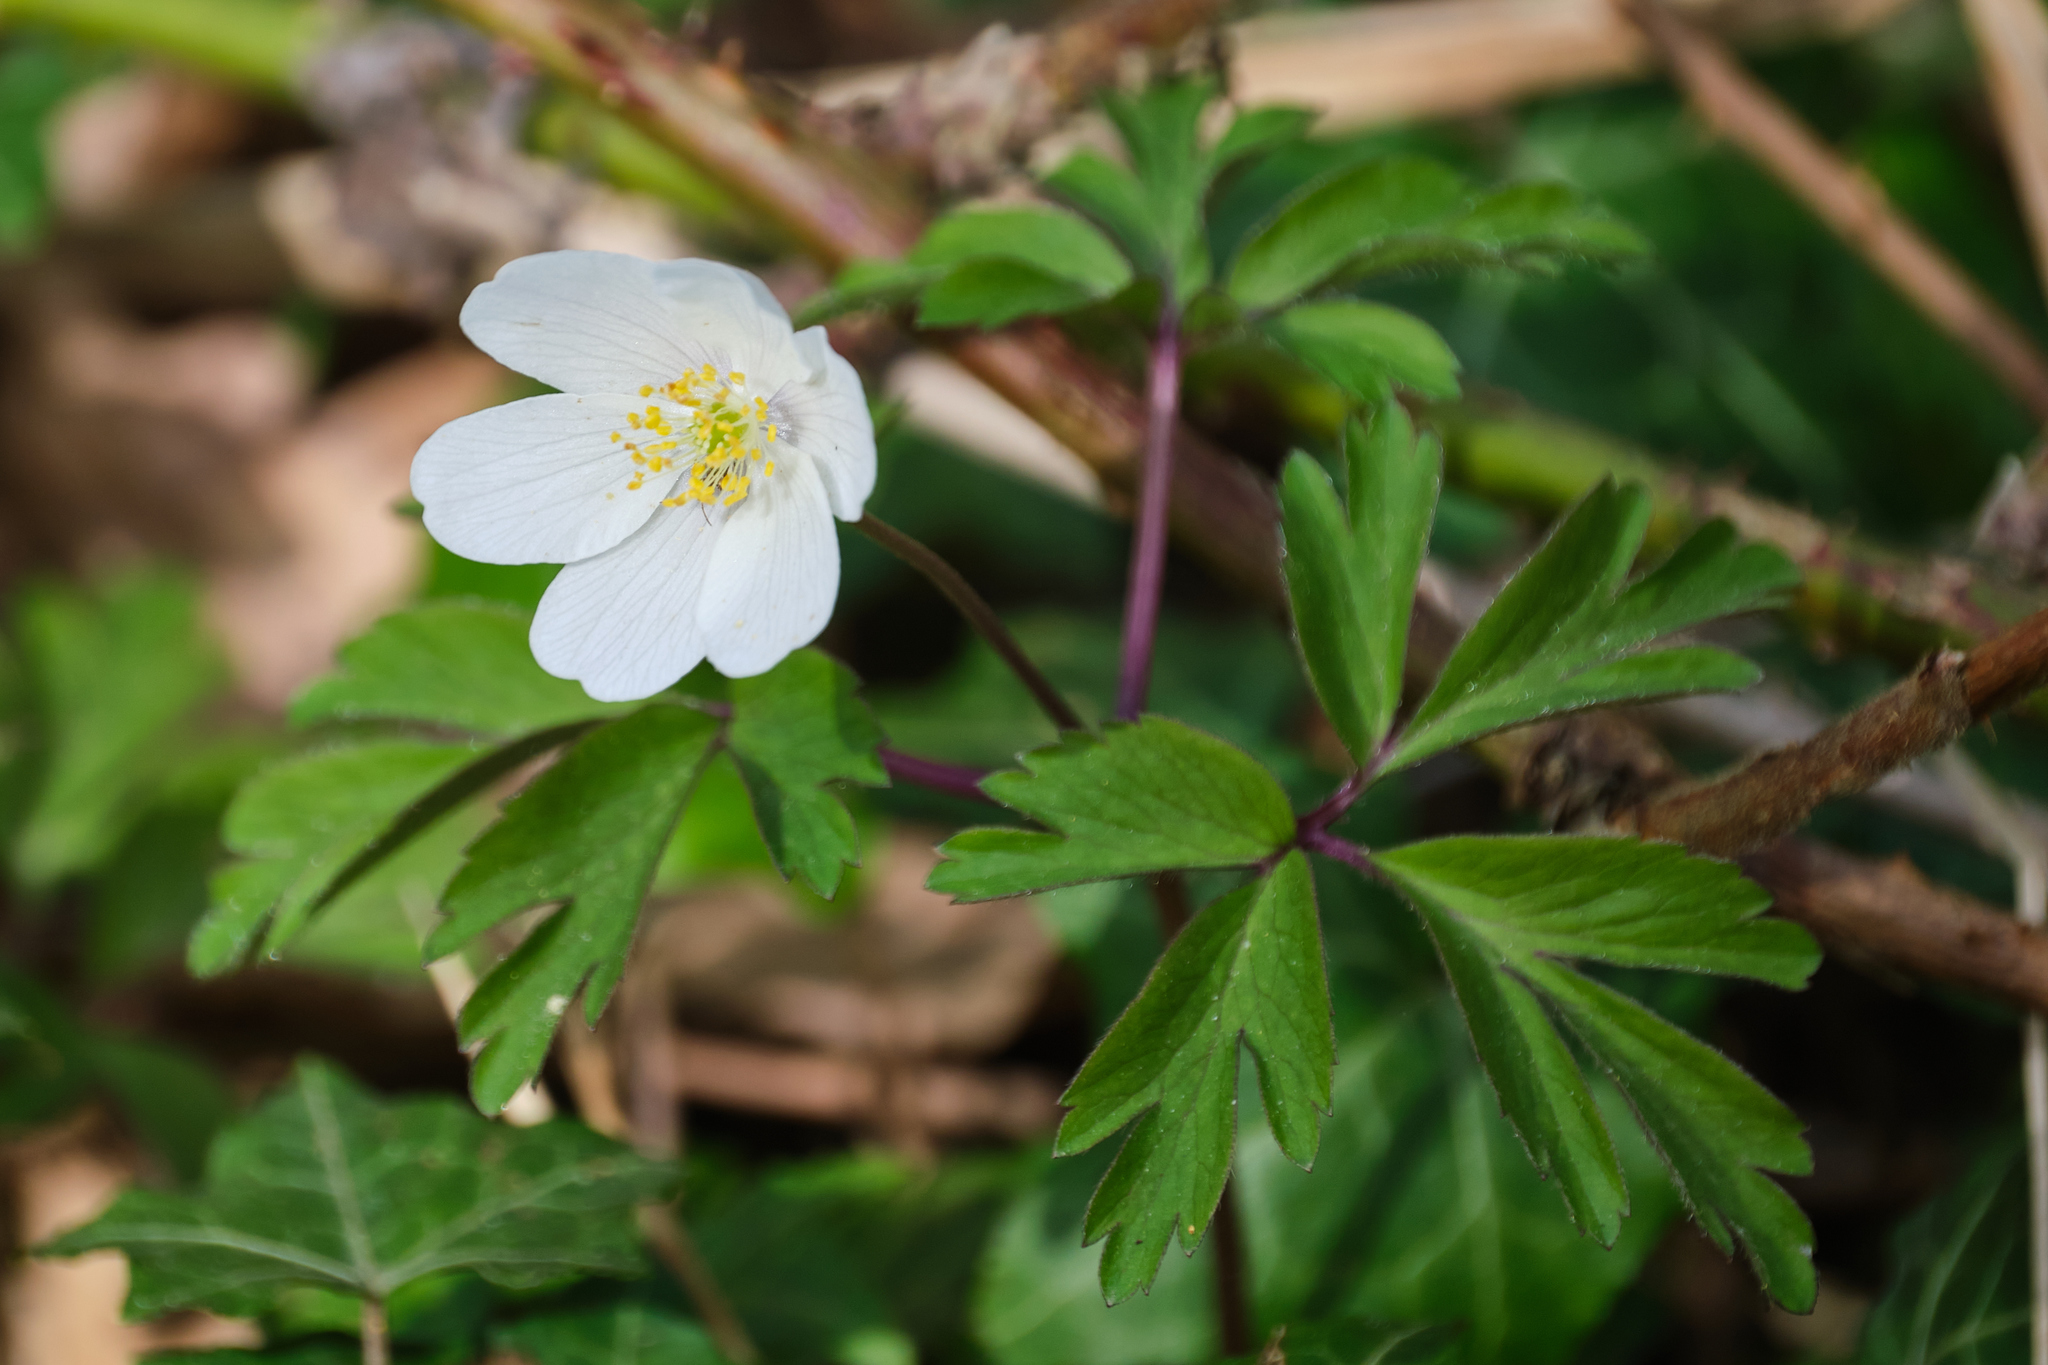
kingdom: Plantae
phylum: Tracheophyta
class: Magnoliopsida
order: Ranunculales
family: Ranunculaceae
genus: Anemone
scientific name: Anemone nemorosa
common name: Wood anemone
